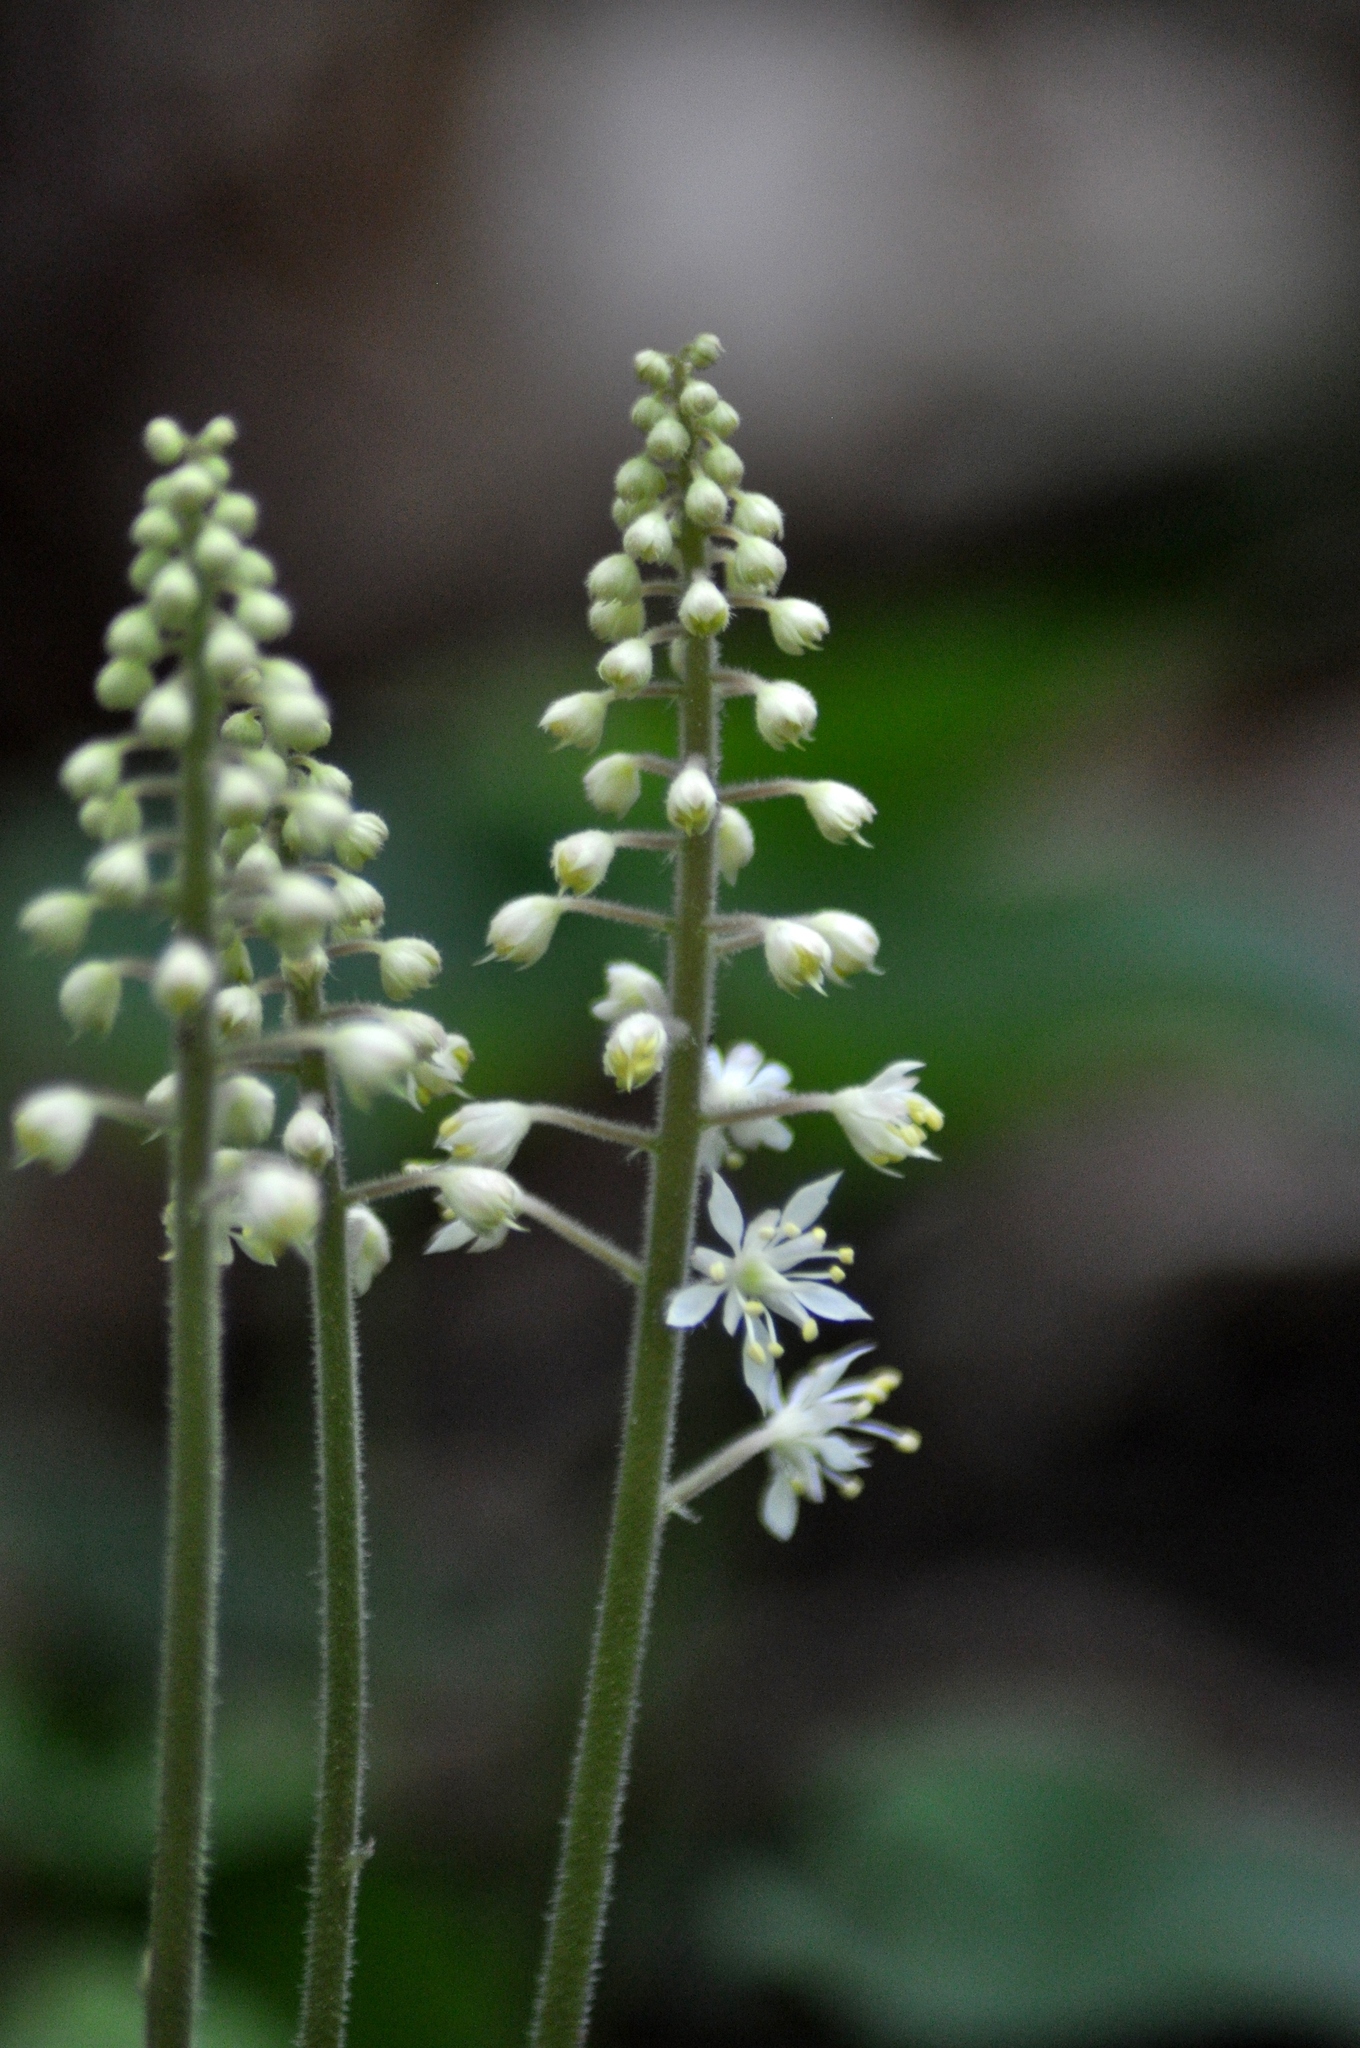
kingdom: Plantae
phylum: Tracheophyta
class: Magnoliopsida
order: Saxifragales
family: Saxifragaceae
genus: Tiarella
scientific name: Tiarella stolonifera
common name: Stoloniferous foamflower
